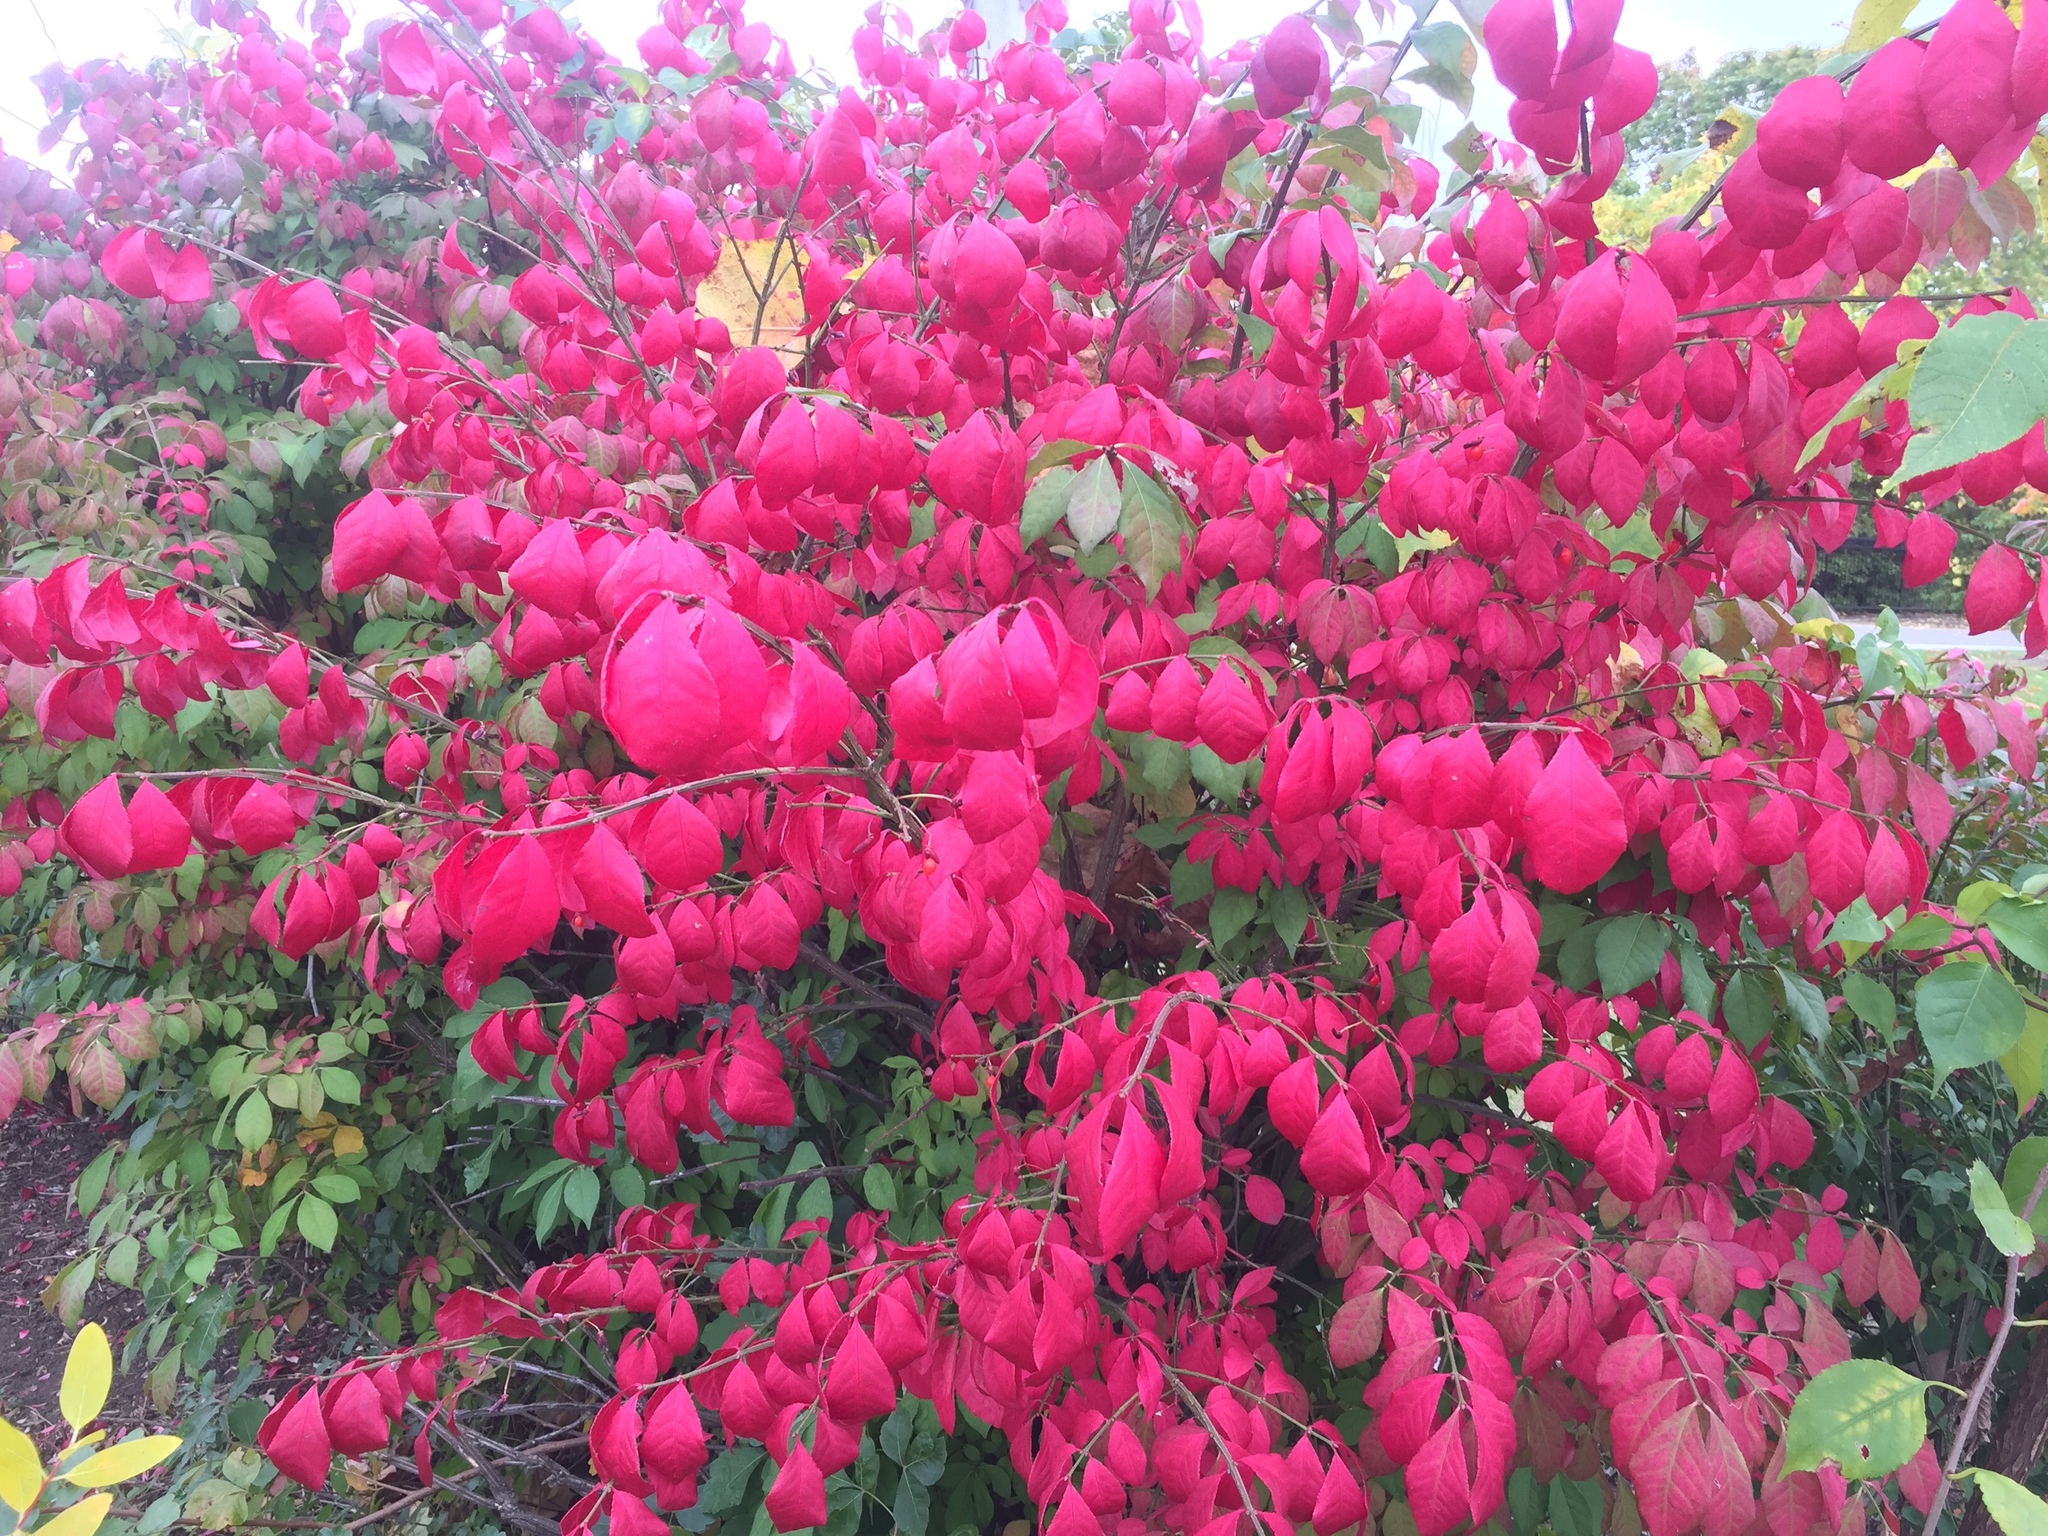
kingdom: Plantae
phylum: Tracheophyta
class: Magnoliopsida
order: Celastrales
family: Celastraceae
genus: Euonymus
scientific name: Euonymus alatus
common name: Winged euonymus
